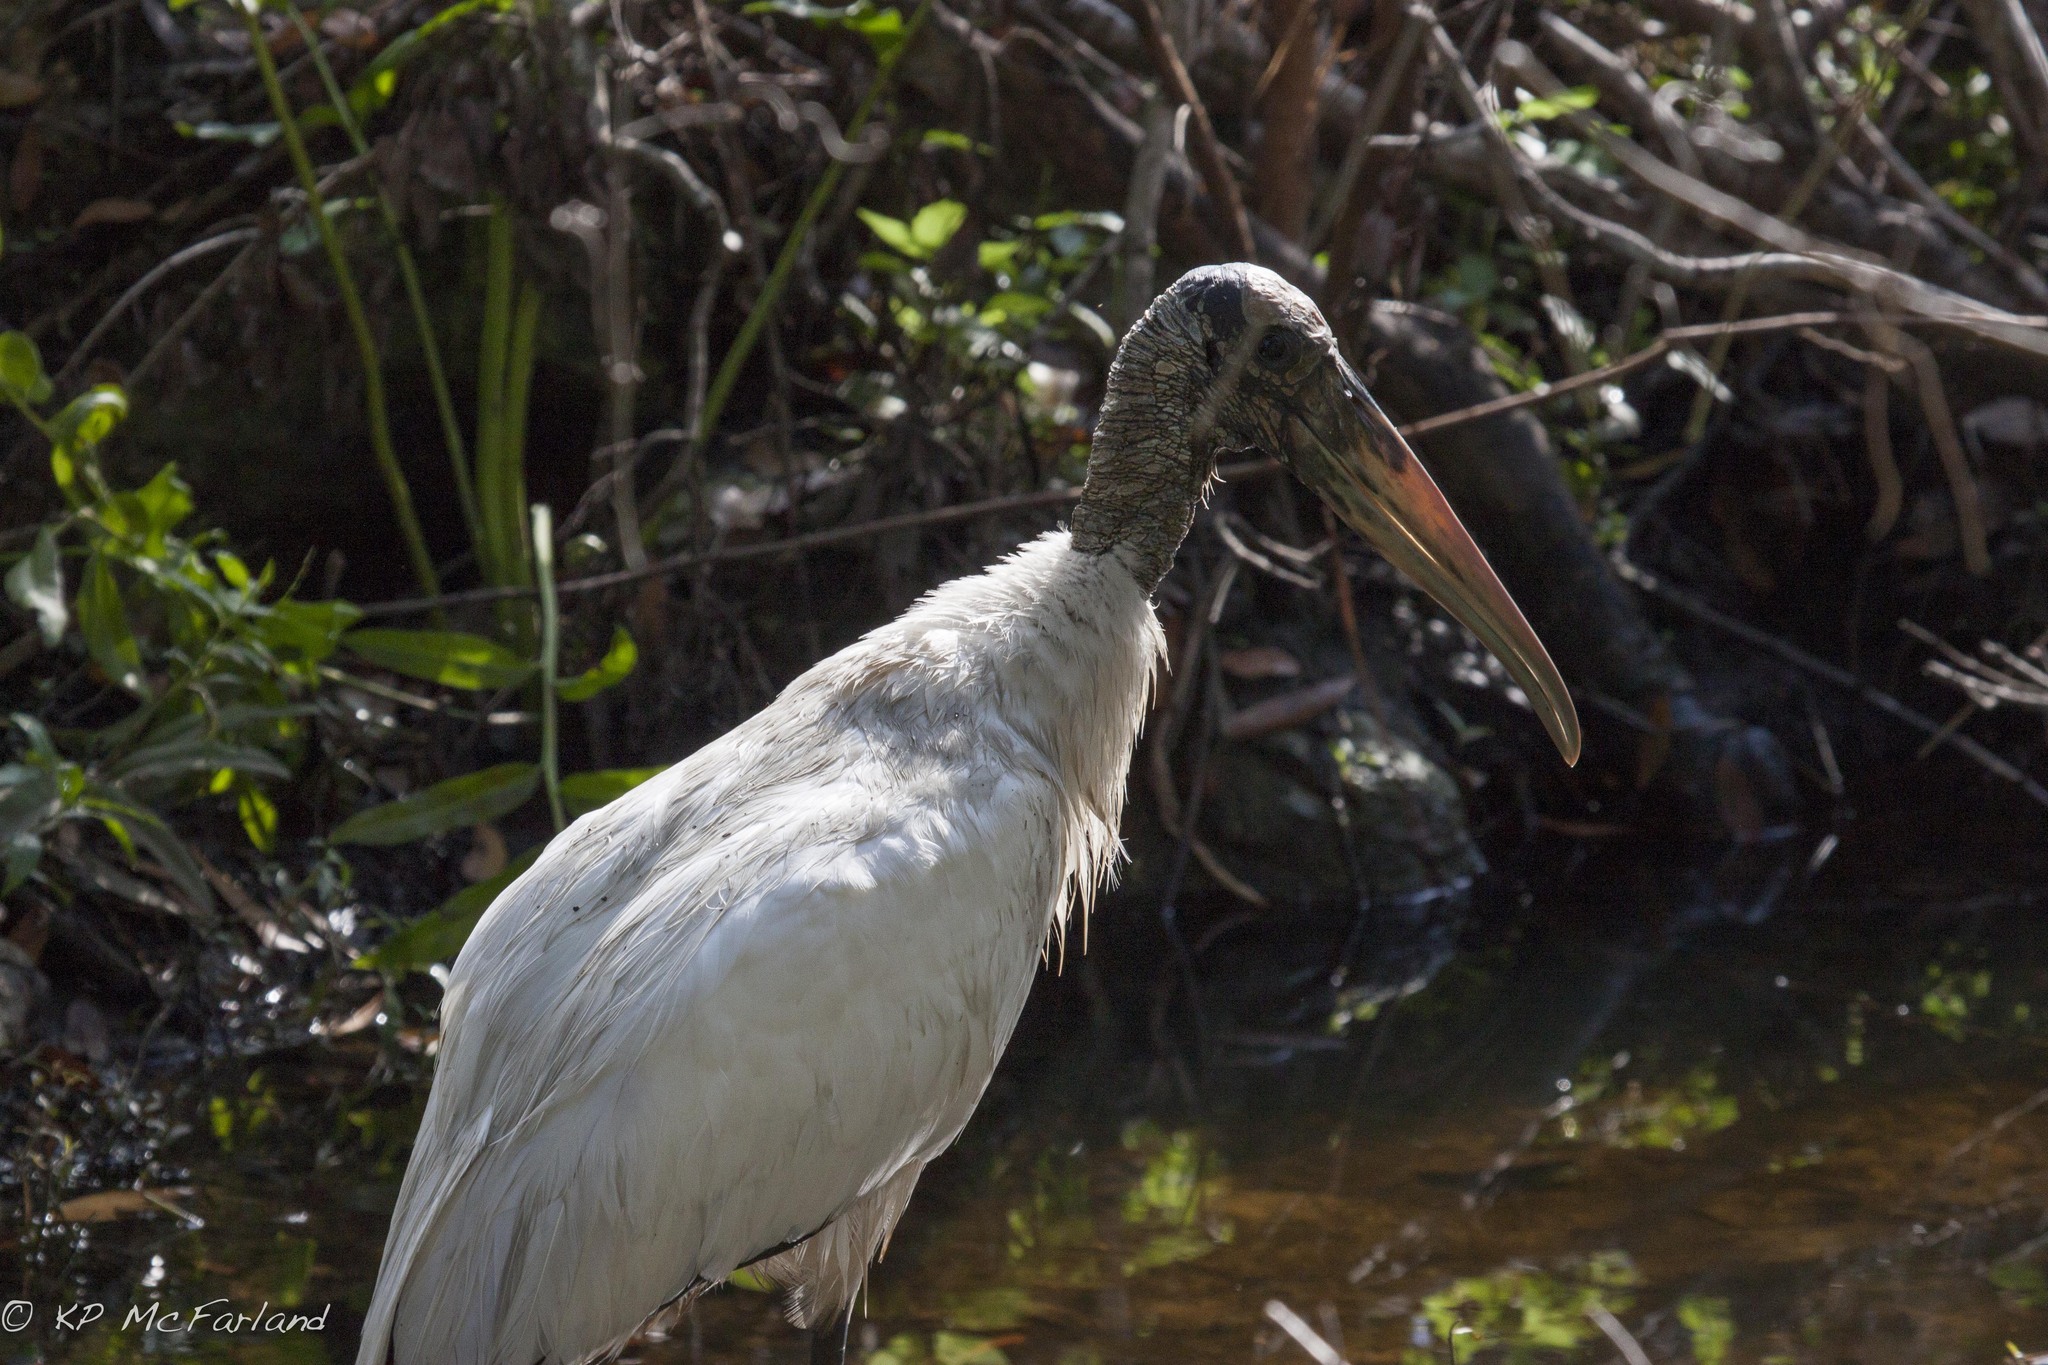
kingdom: Animalia
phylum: Chordata
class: Aves
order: Ciconiiformes
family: Ciconiidae
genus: Mycteria
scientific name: Mycteria americana
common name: Wood stork
